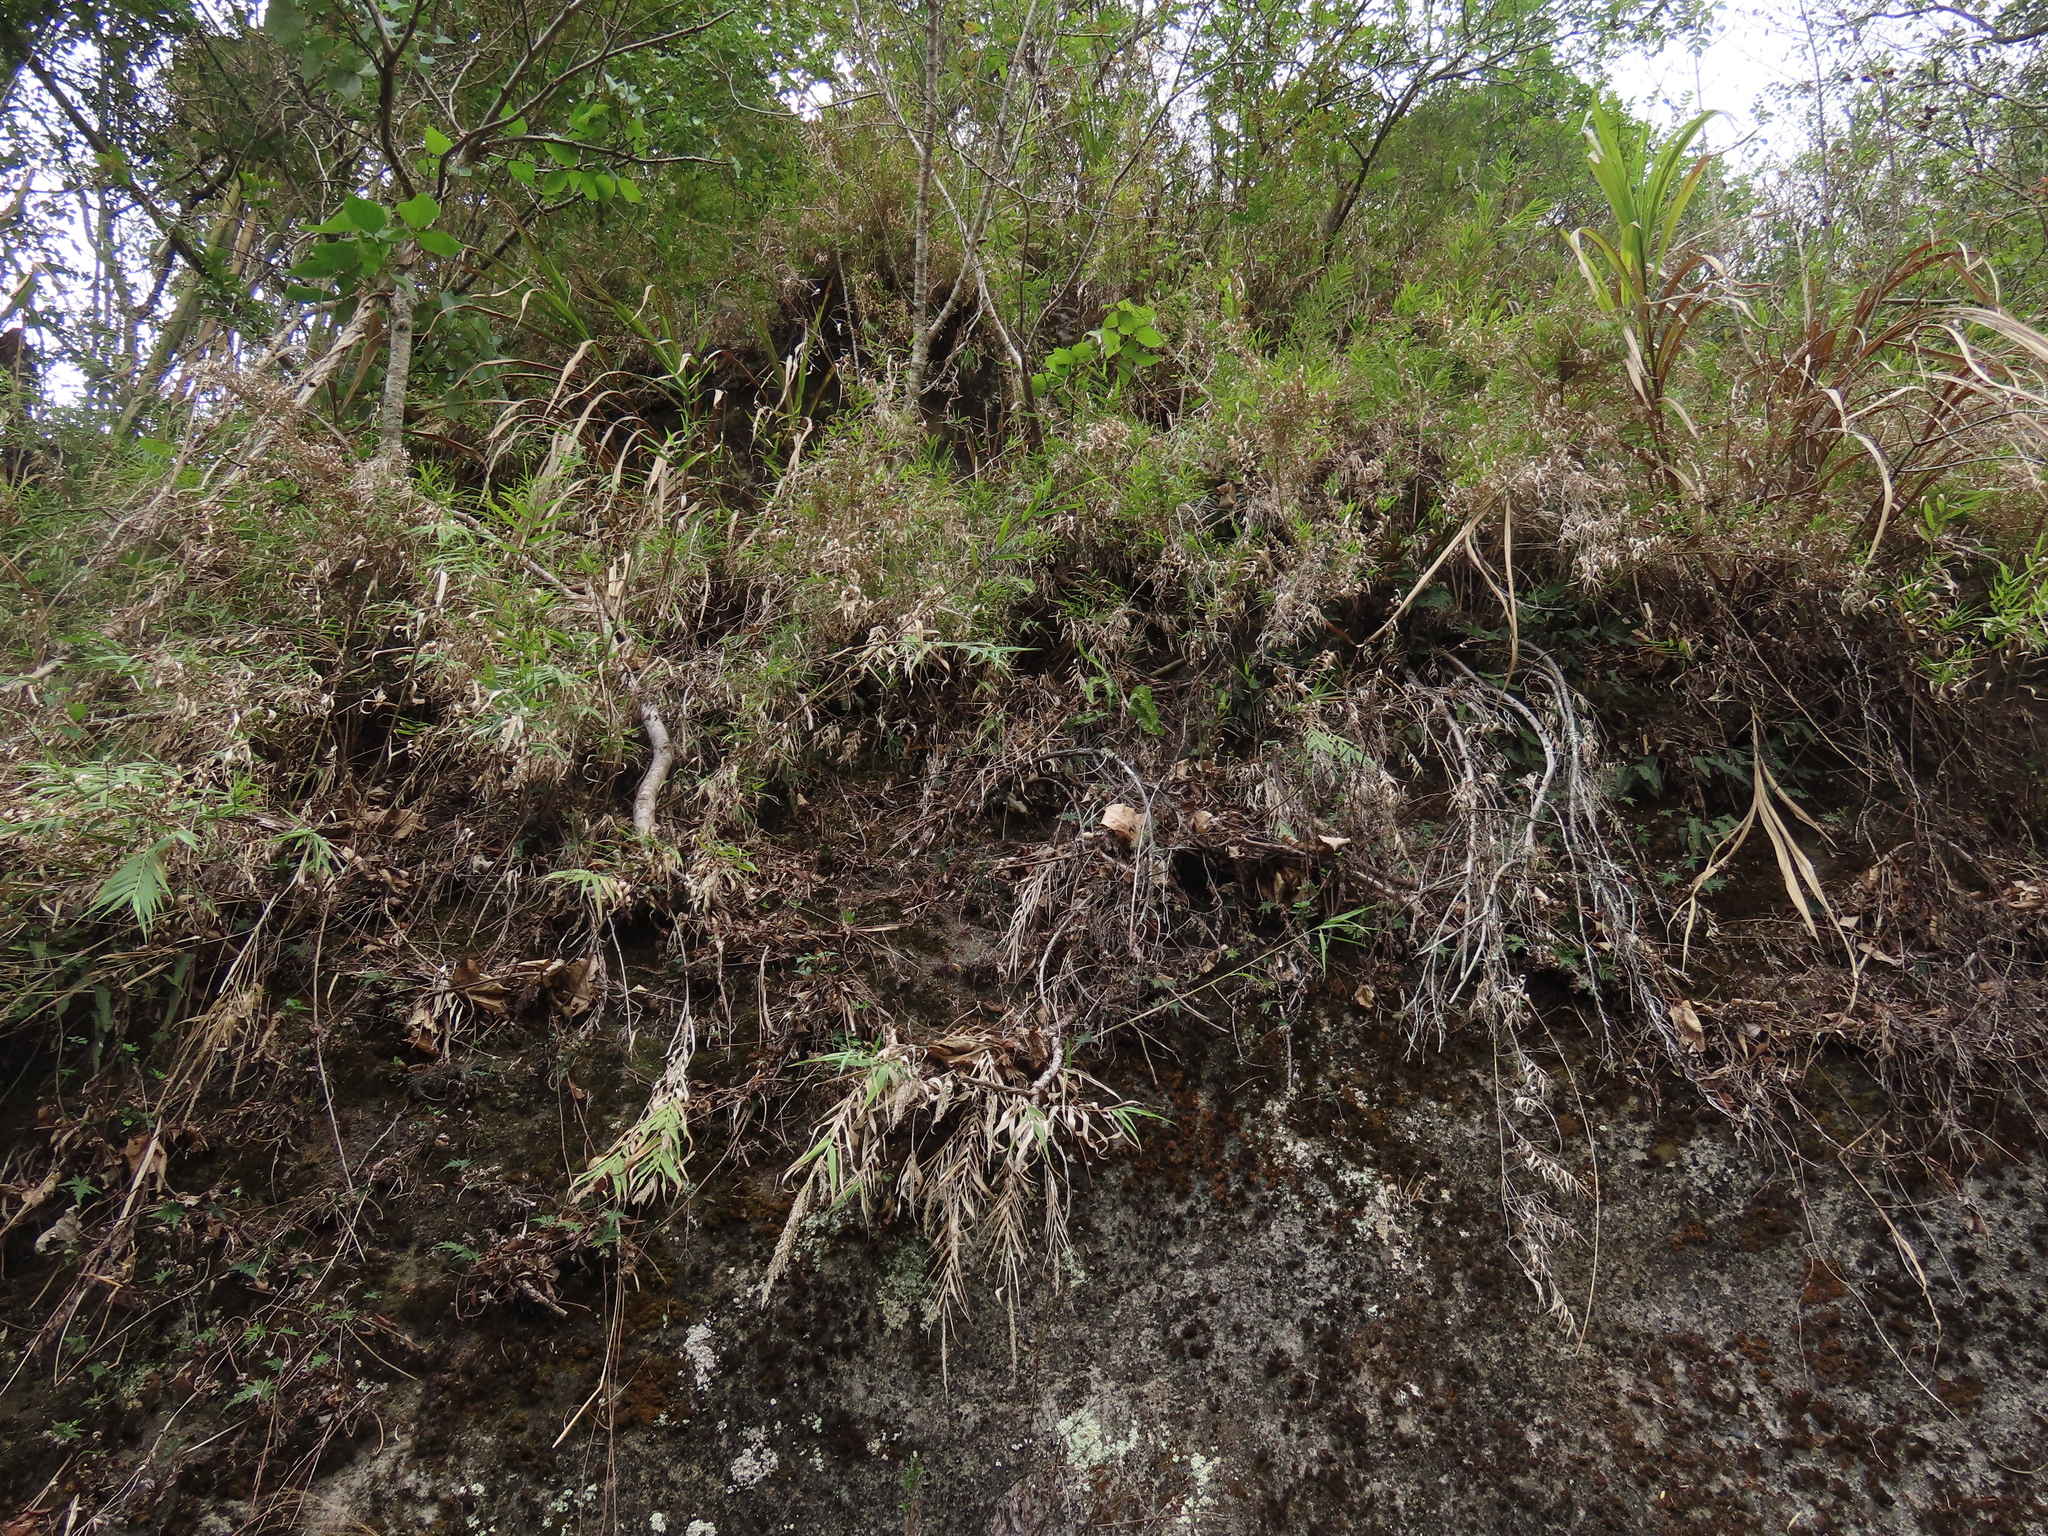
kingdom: Plantae
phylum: Tracheophyta
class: Liliopsida
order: Poales
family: Poaceae
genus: Arundo
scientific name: Arundo formosana
